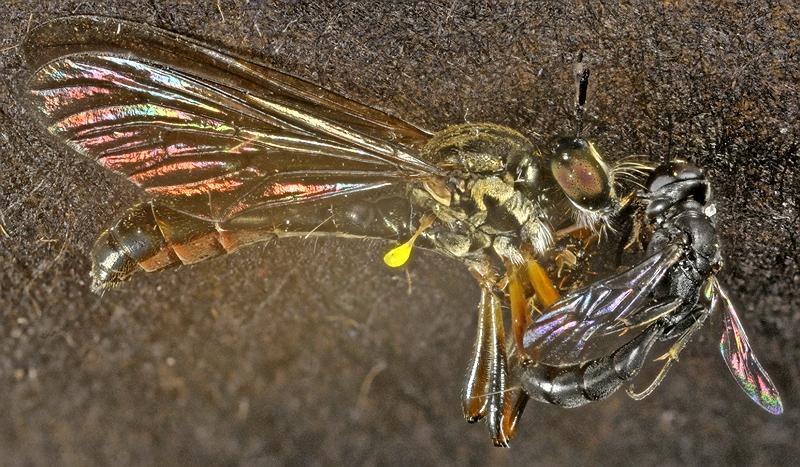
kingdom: Animalia
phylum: Arthropoda
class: Insecta
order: Diptera
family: Asilidae
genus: Dioctria
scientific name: Dioctria hyalipennis
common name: Stripe-legged robberfly
